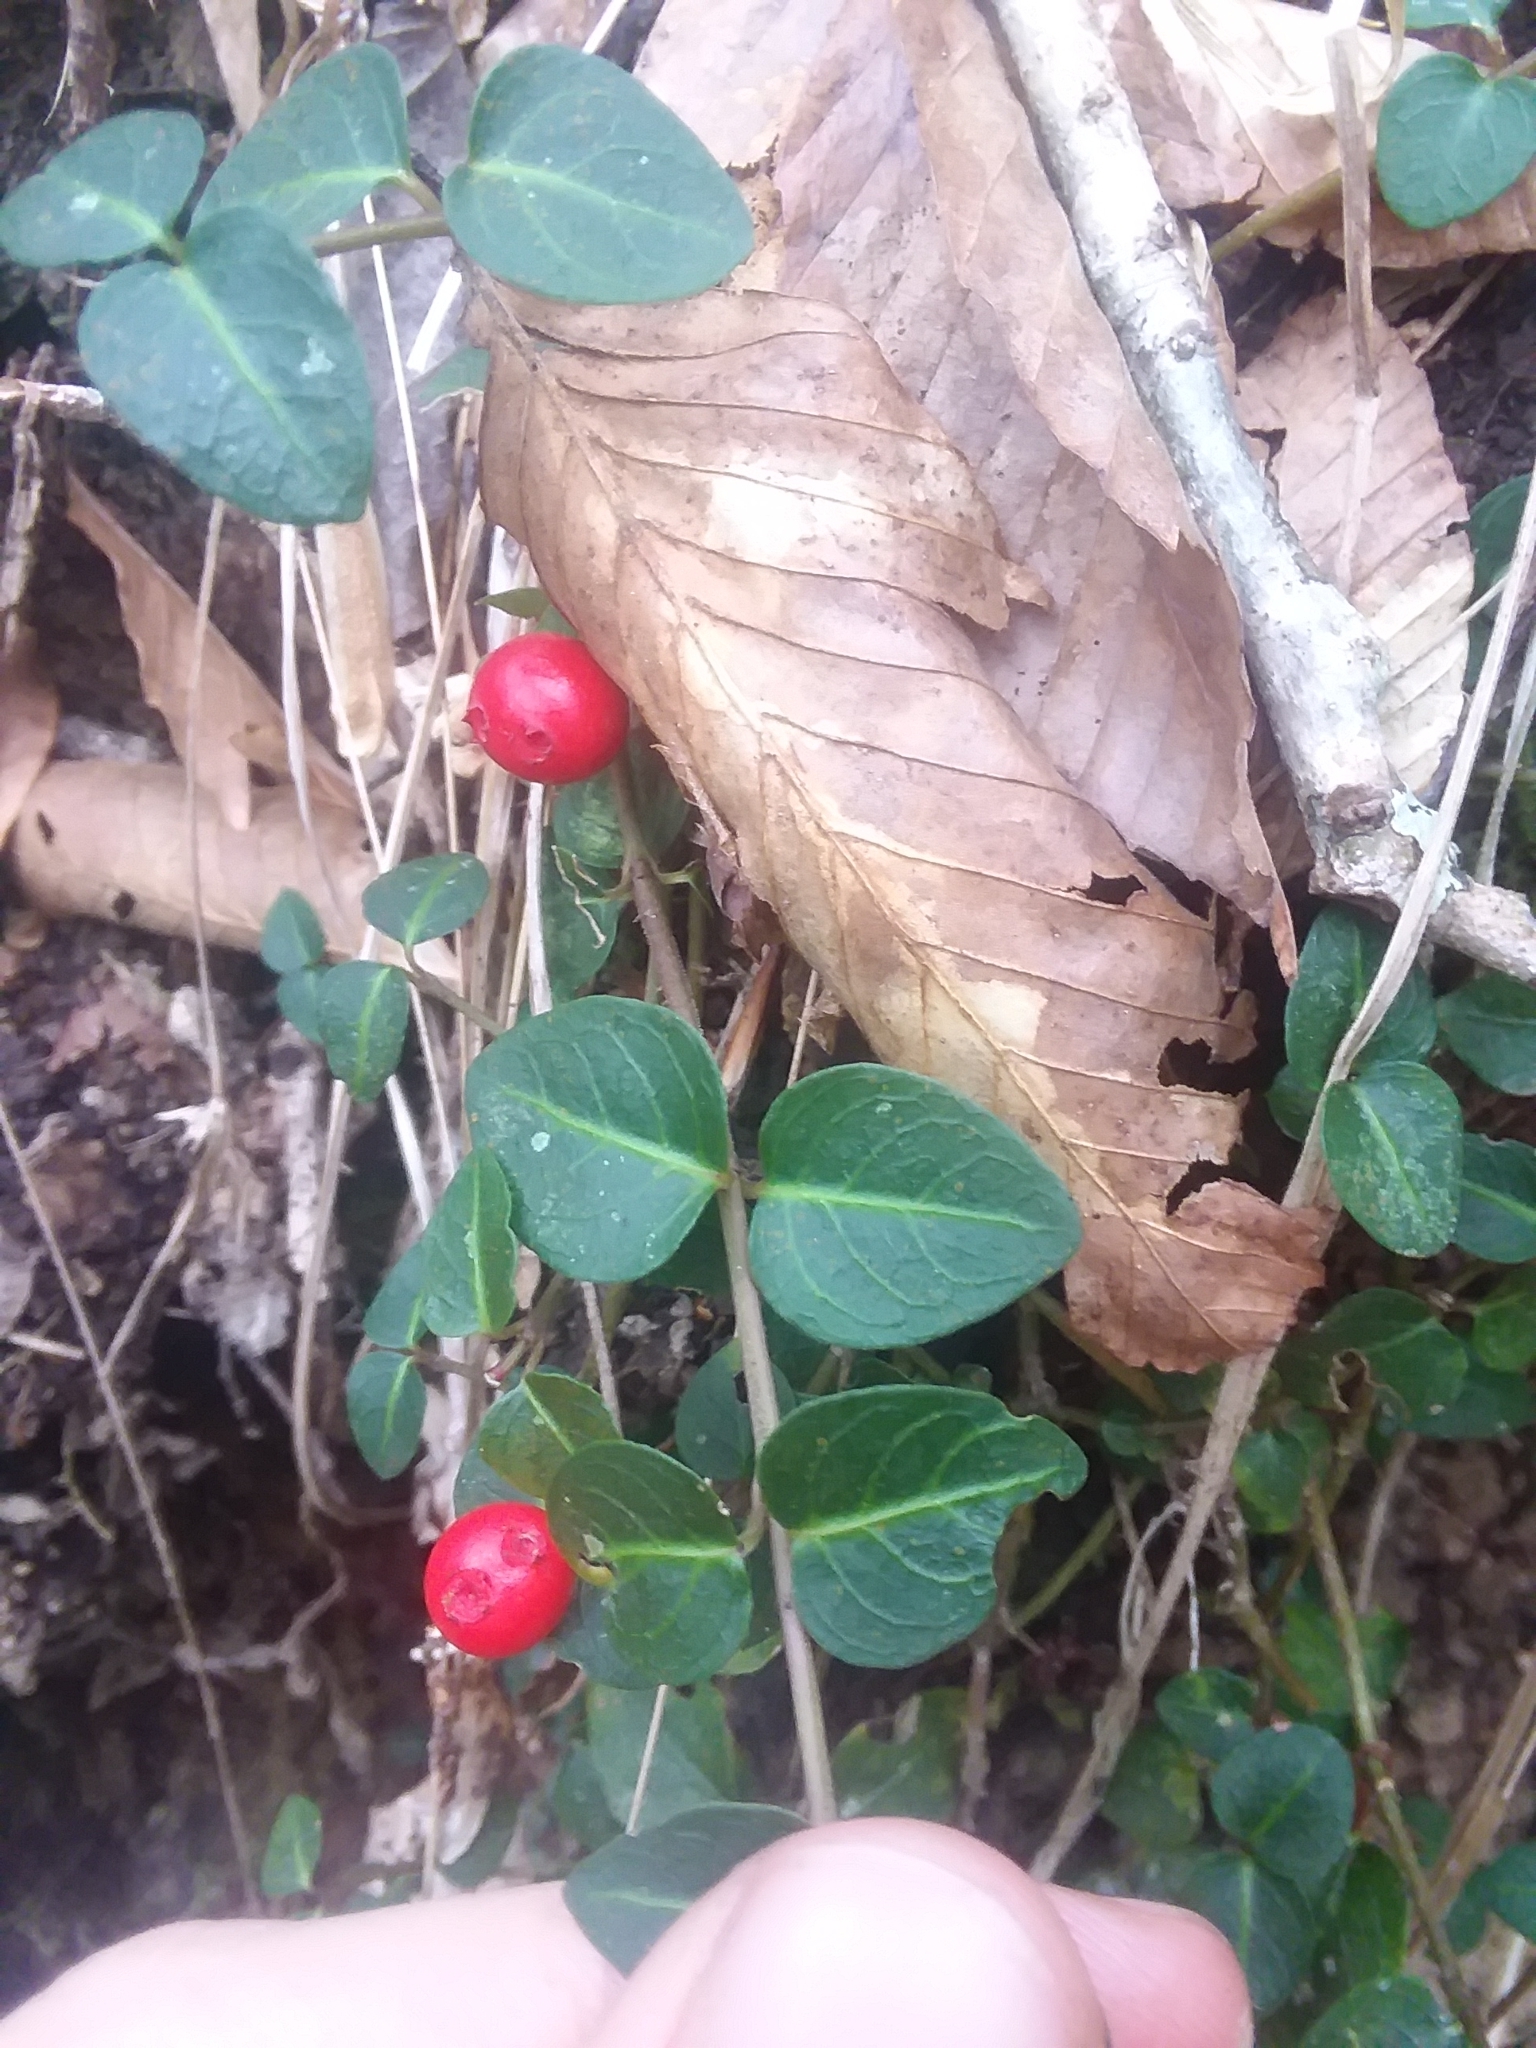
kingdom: Plantae
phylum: Tracheophyta
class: Magnoliopsida
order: Gentianales
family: Rubiaceae
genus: Mitchella
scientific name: Mitchella repens
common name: Partridge-berry
